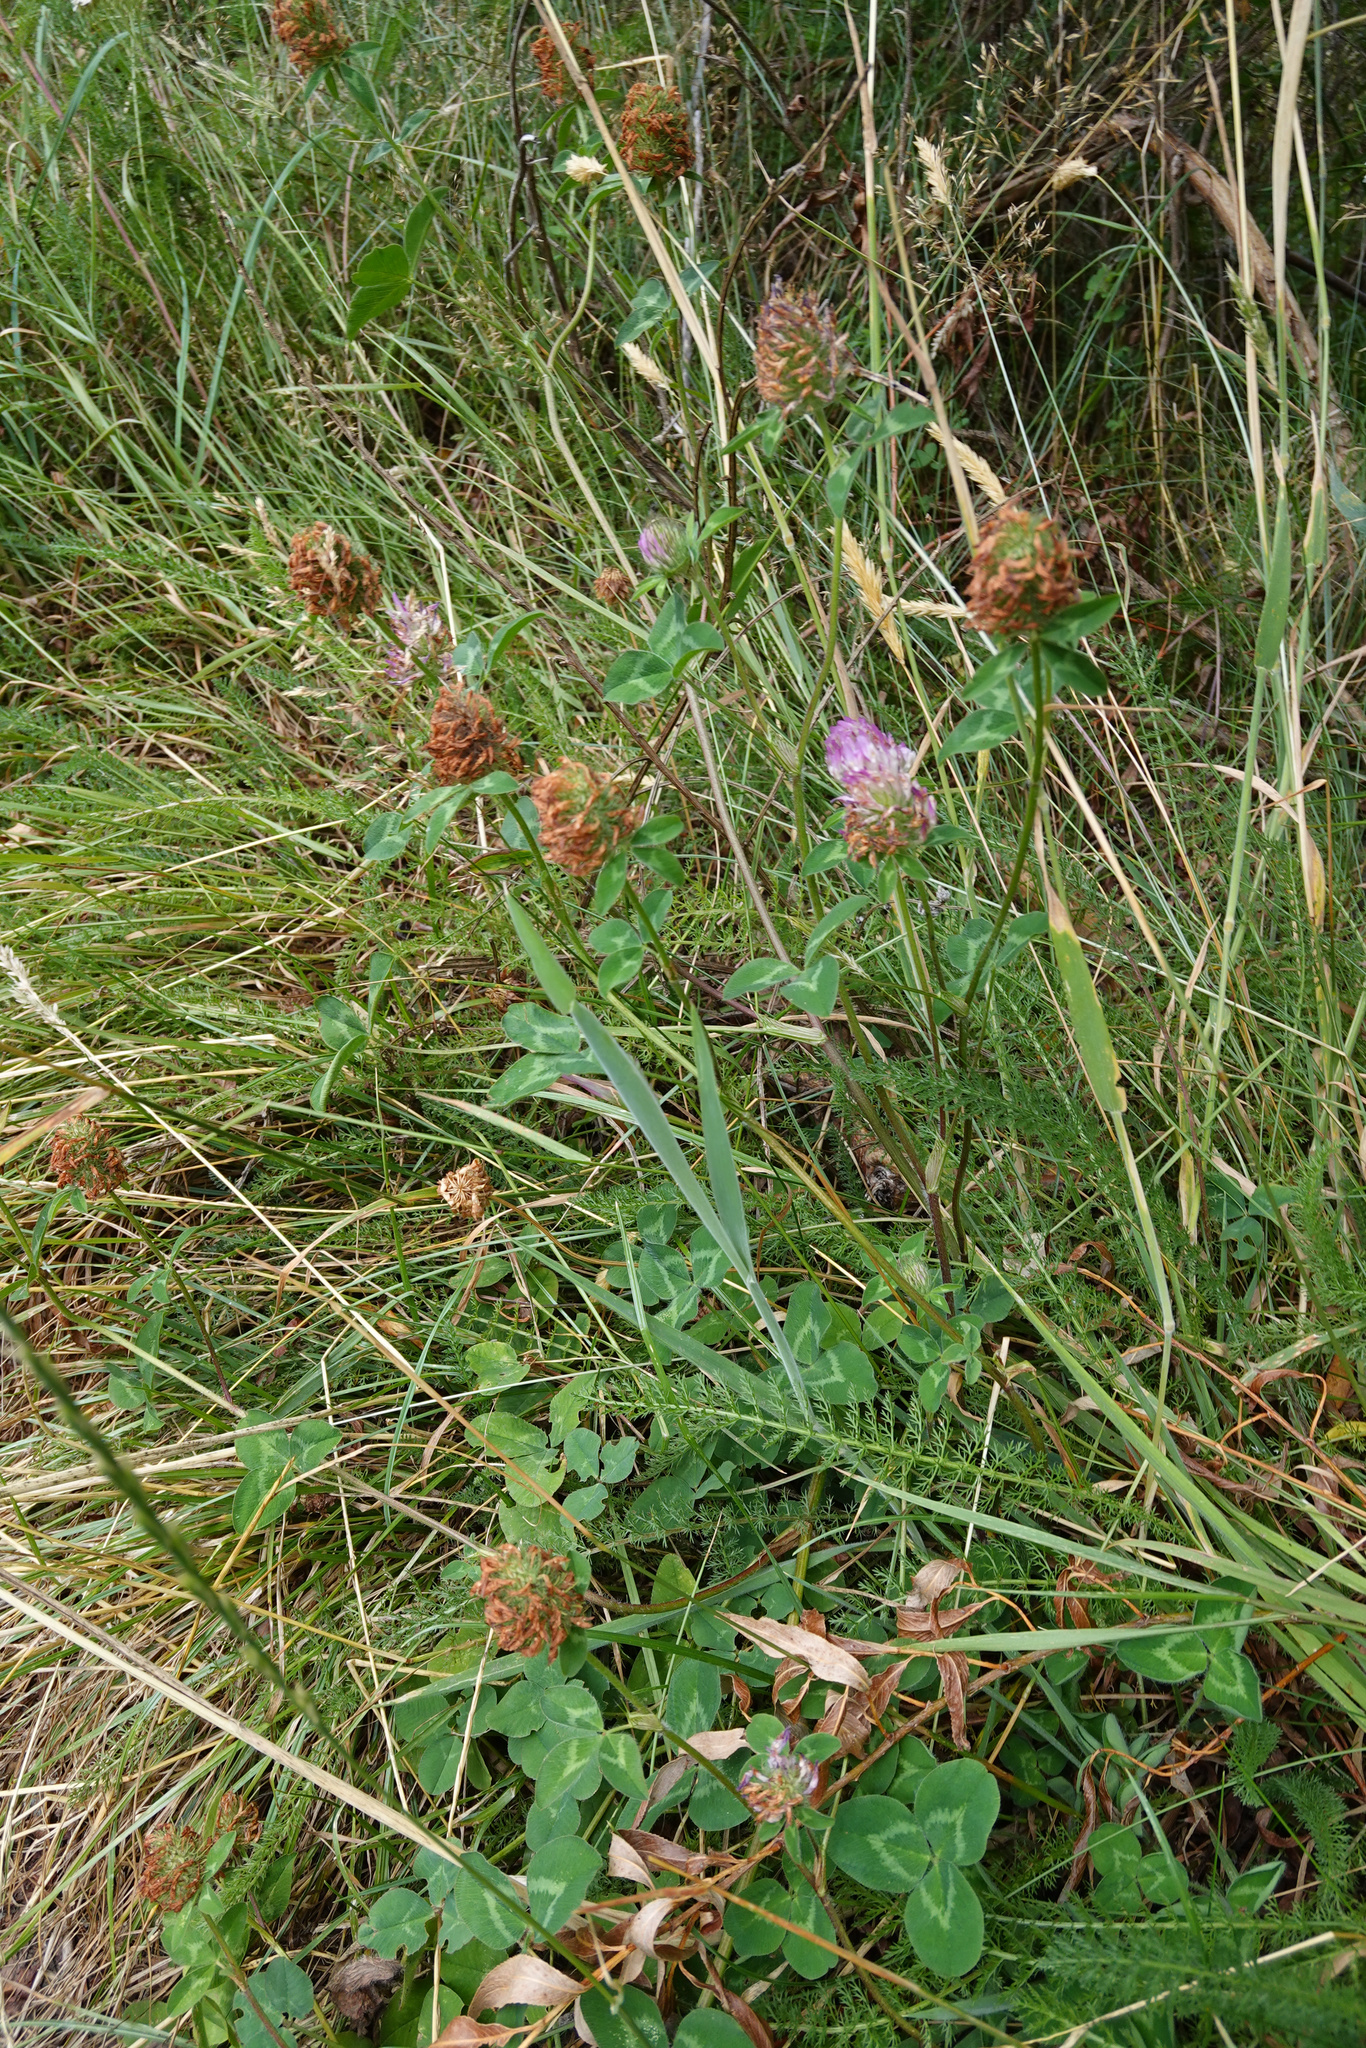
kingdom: Plantae
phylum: Tracheophyta
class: Magnoliopsida
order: Fabales
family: Fabaceae
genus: Trifolium
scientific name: Trifolium pratense
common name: Red clover
